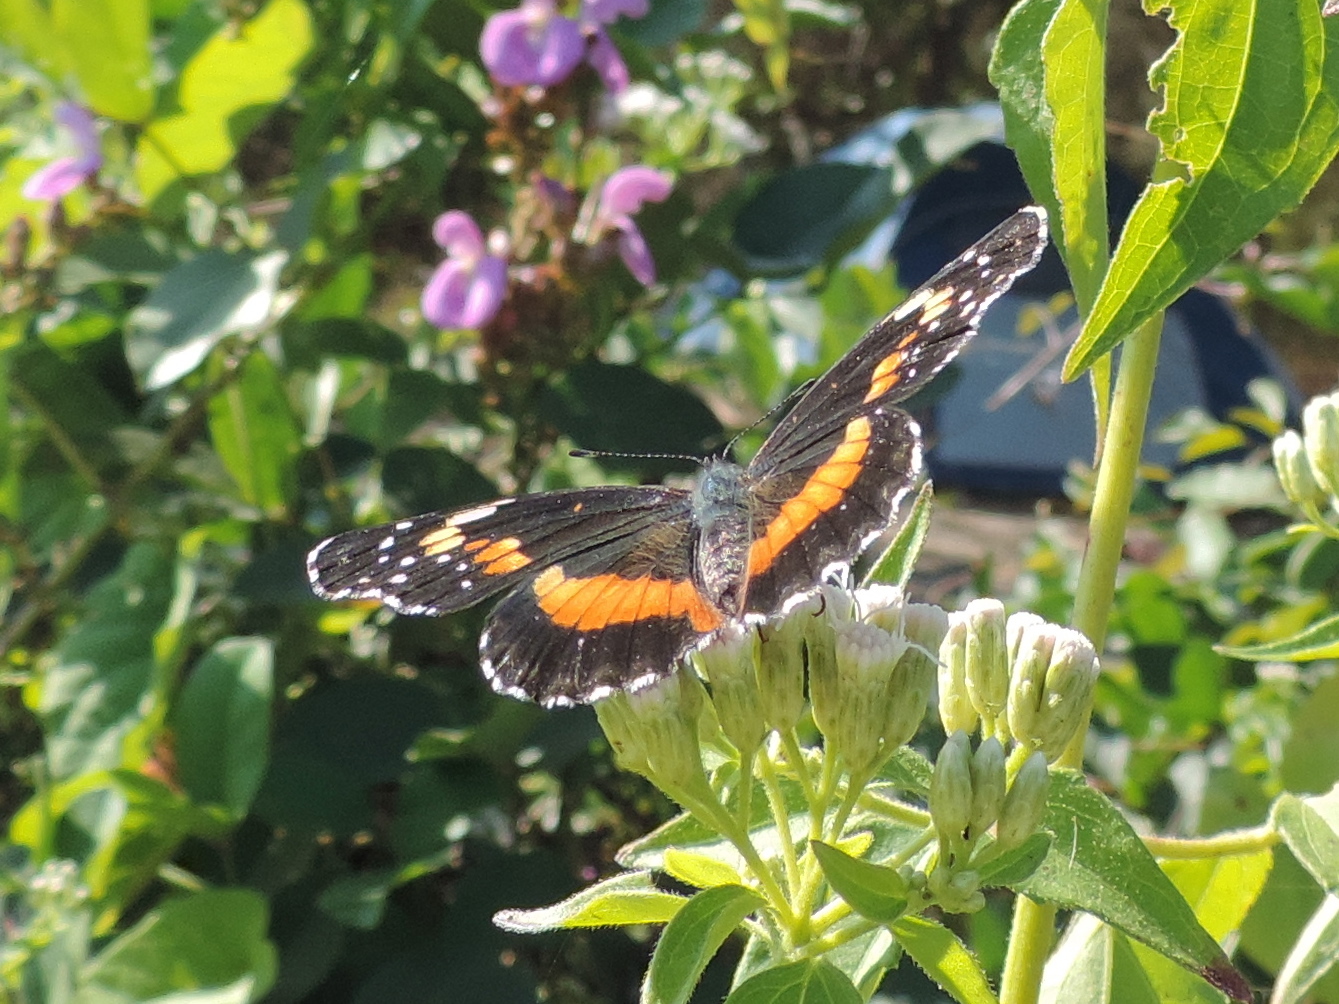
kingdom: Animalia
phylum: Arthropoda
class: Insecta
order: Lepidoptera
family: Nymphalidae
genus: Chlosyne
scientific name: Chlosyne lacinia
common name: Bordered patch
